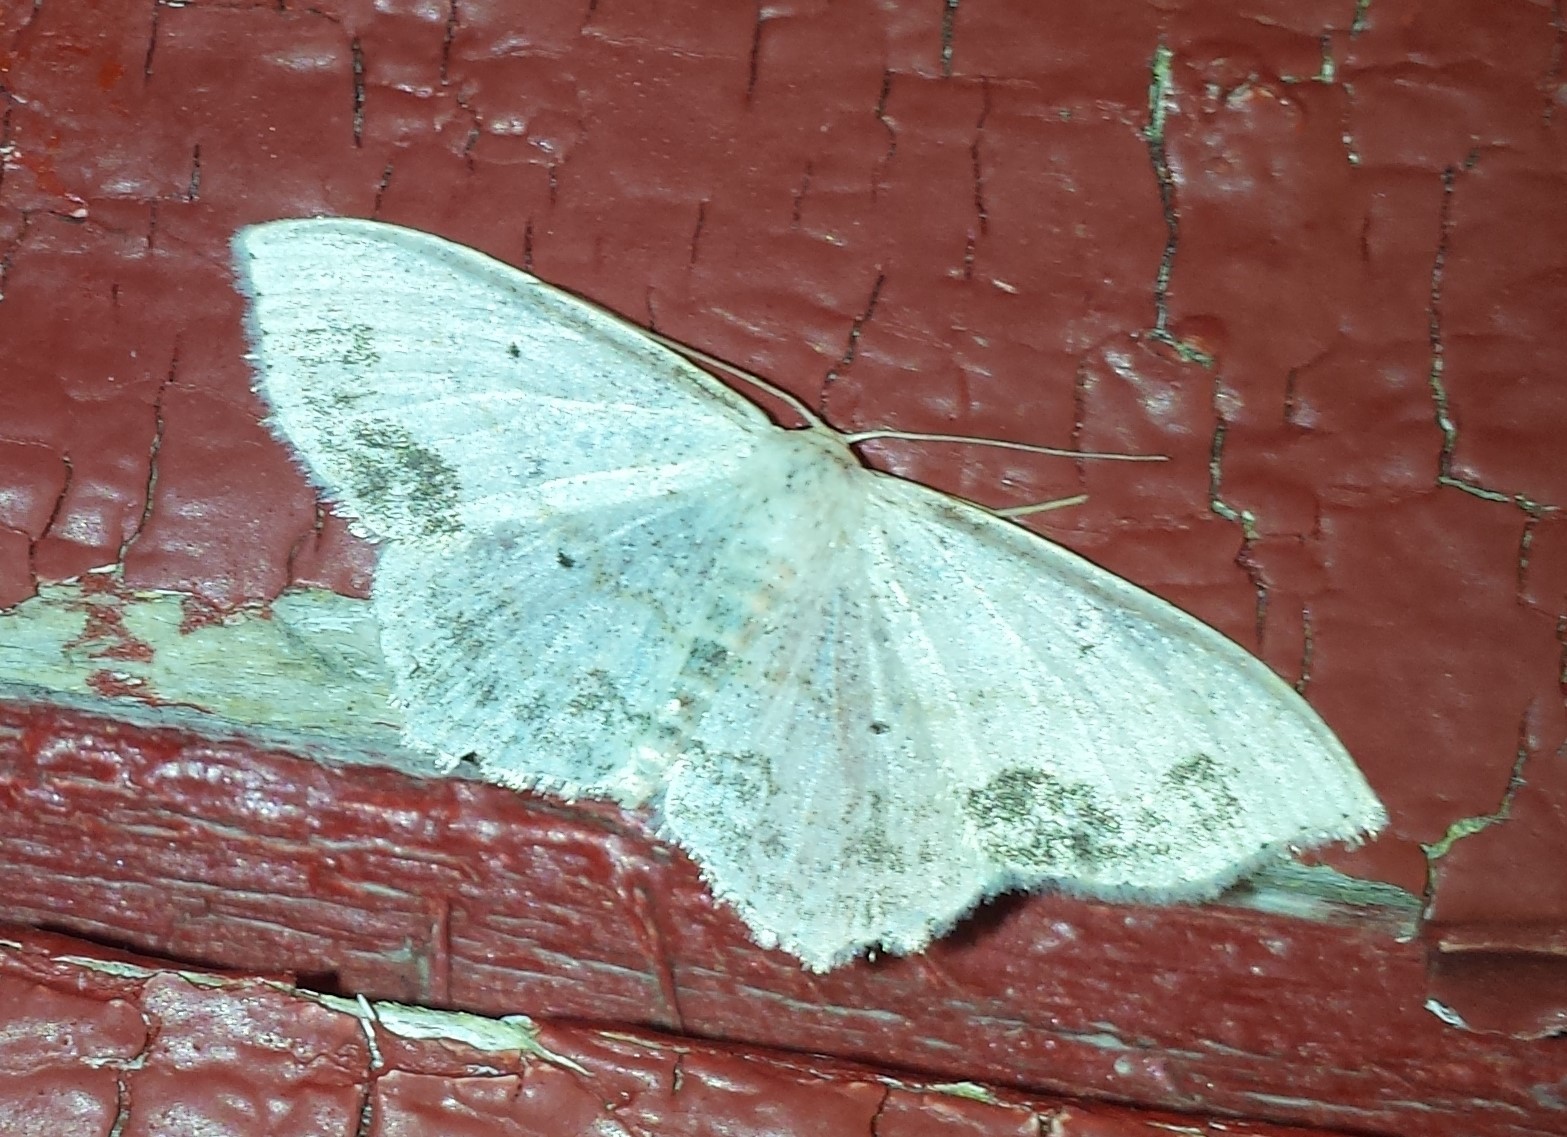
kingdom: Animalia
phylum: Arthropoda
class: Insecta
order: Lepidoptera
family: Geometridae
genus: Scopula
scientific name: Scopula limboundata
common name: Large lace border
